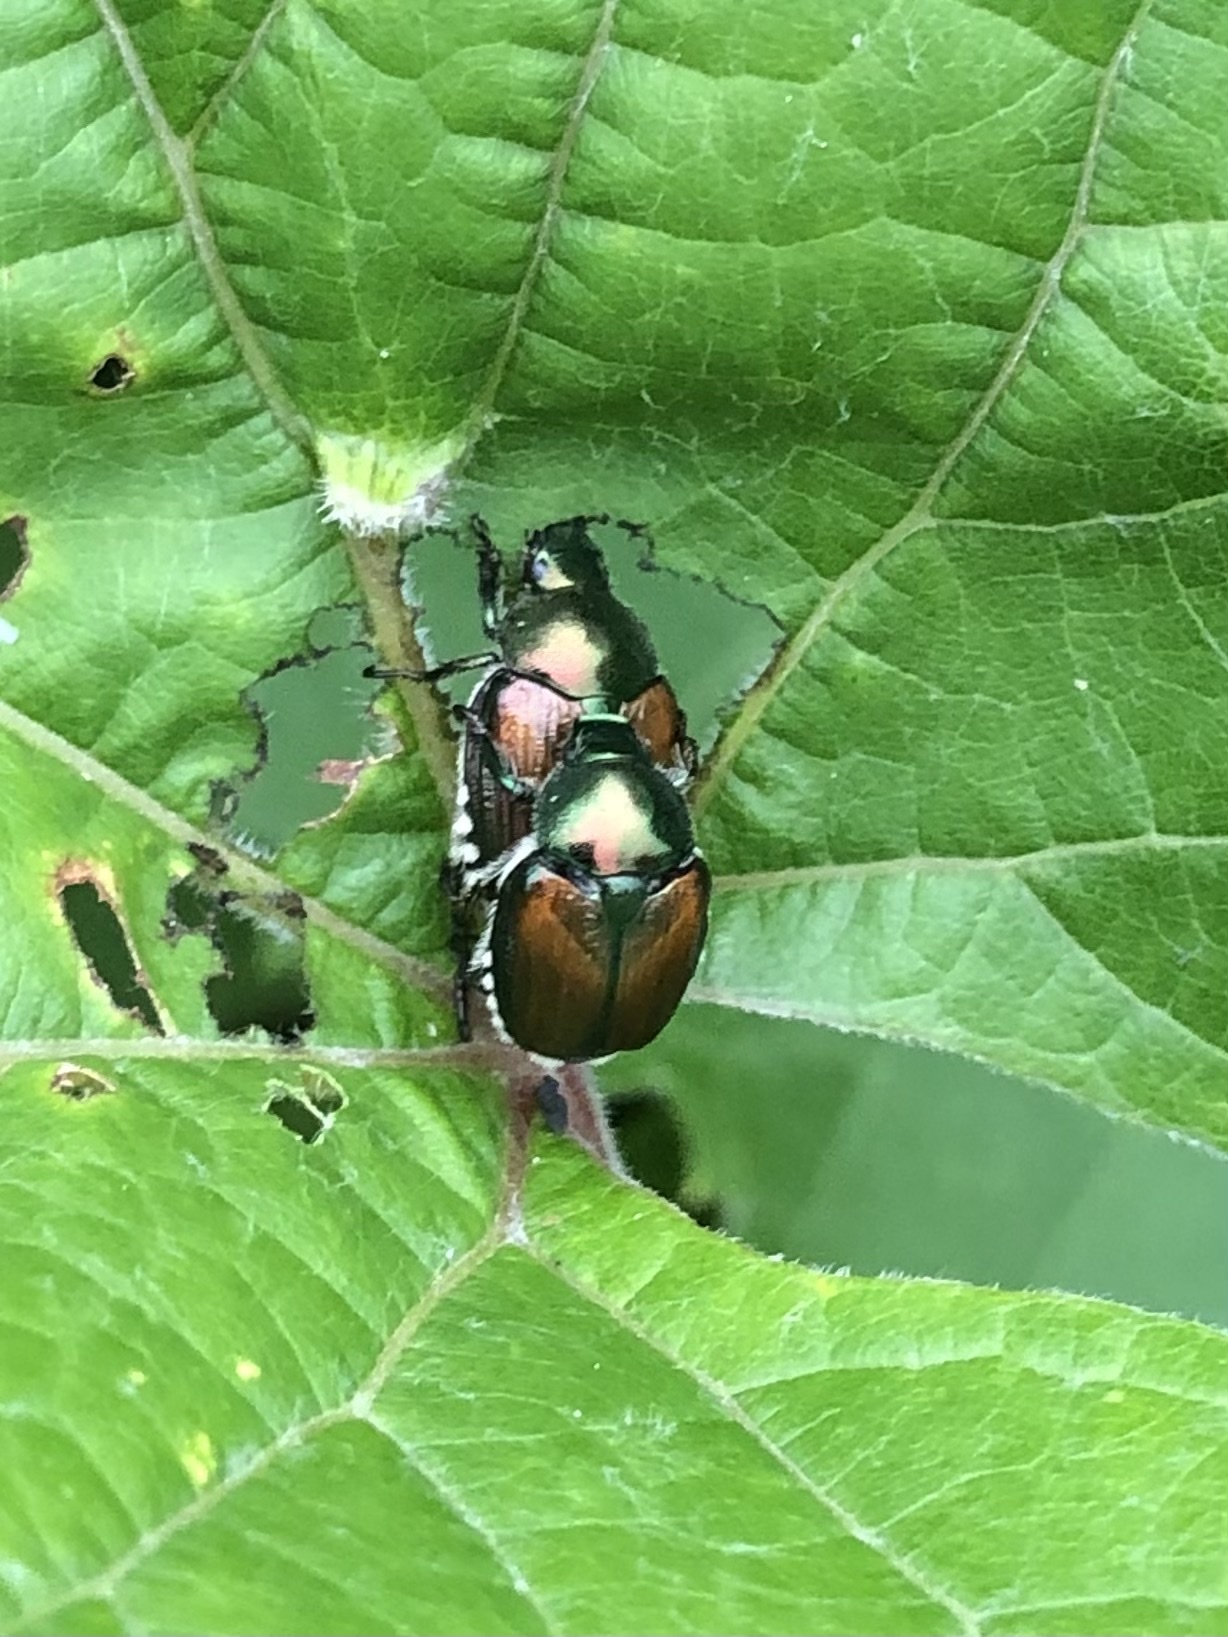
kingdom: Animalia
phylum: Arthropoda
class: Insecta
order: Coleoptera
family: Scarabaeidae
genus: Popillia
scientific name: Popillia japonica
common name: Japanese beetle
